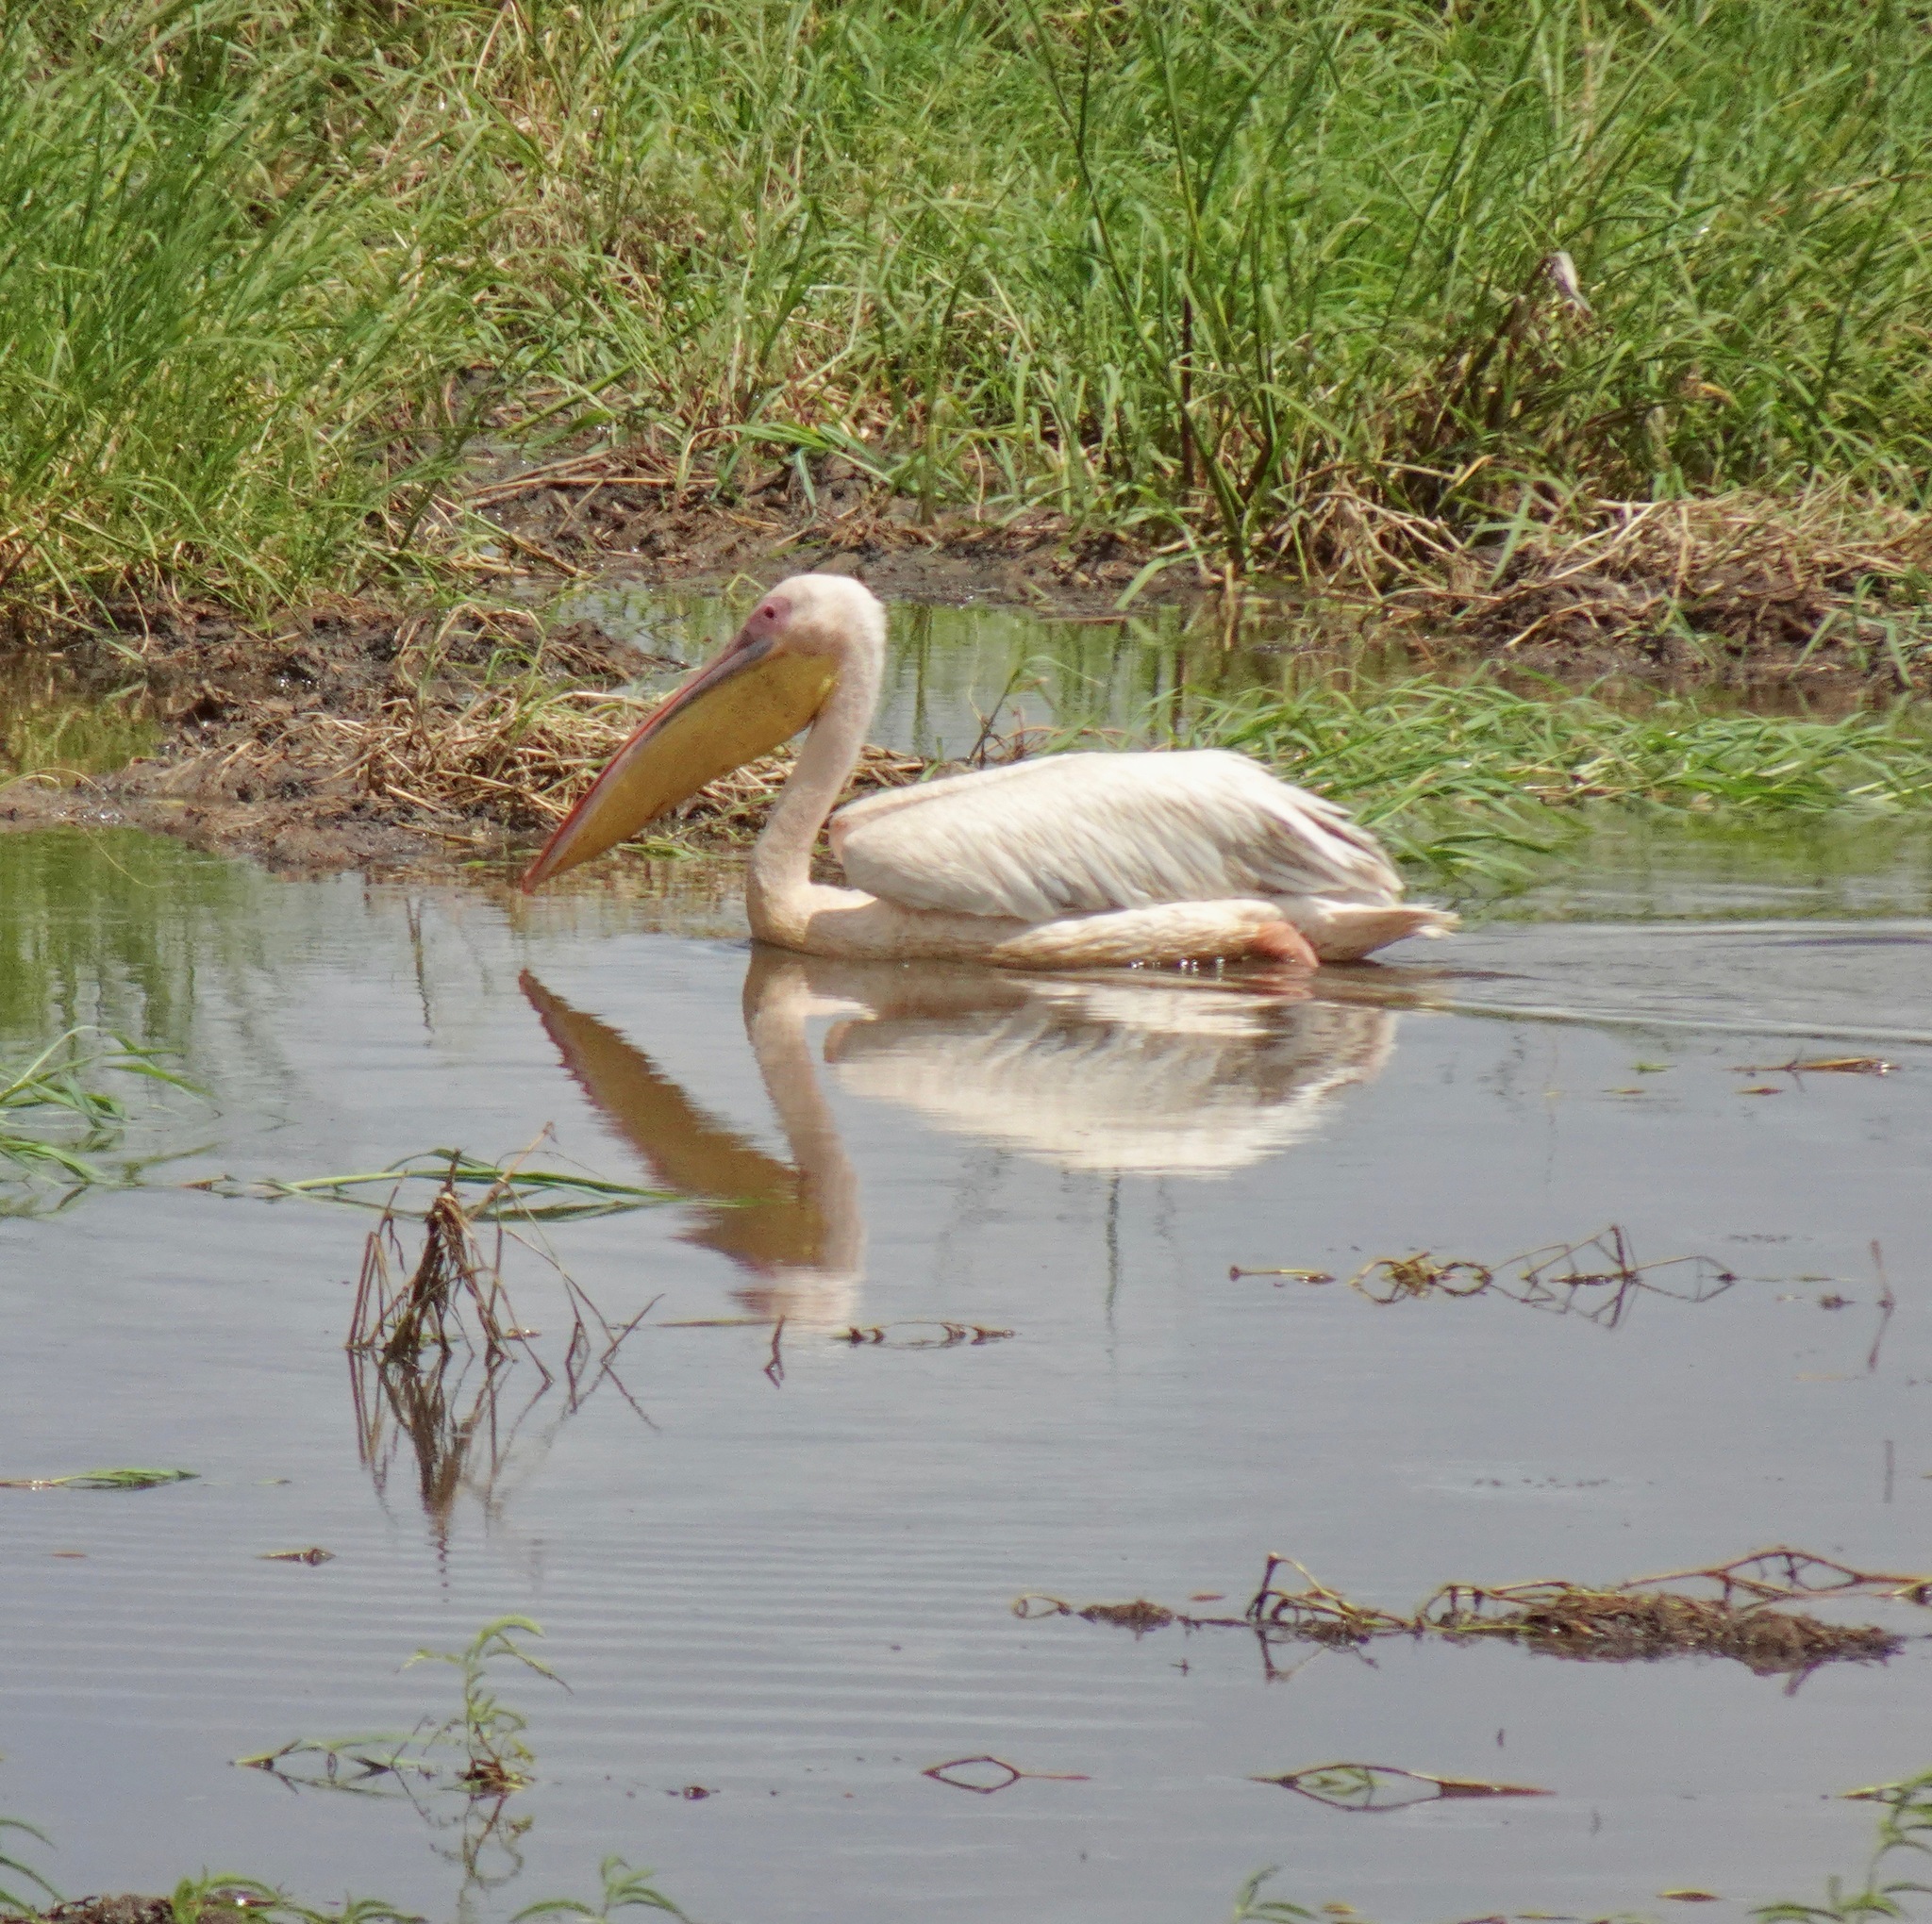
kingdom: Animalia
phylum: Chordata
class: Aves
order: Pelecaniformes
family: Pelecanidae
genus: Pelecanus
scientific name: Pelecanus onocrotalus
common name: Great white pelican
